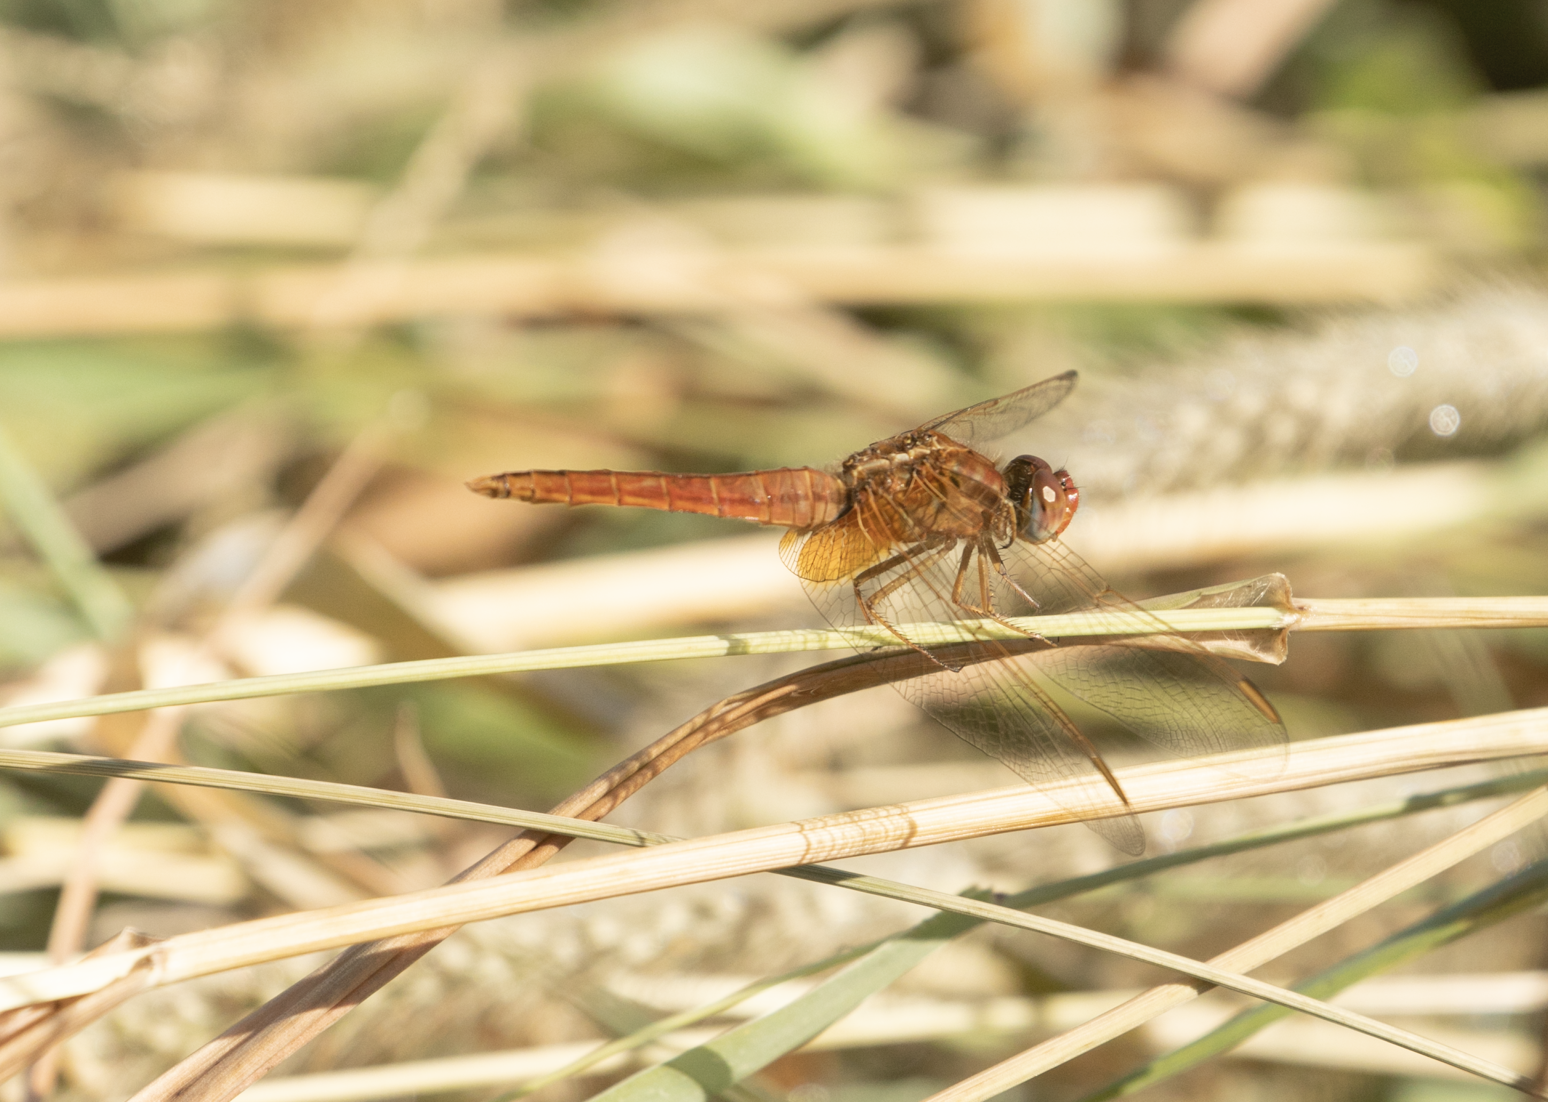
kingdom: Animalia
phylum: Arthropoda
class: Insecta
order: Odonata
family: Libellulidae
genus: Crocothemis
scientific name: Crocothemis erythraea
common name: Scarlet dragonfly
